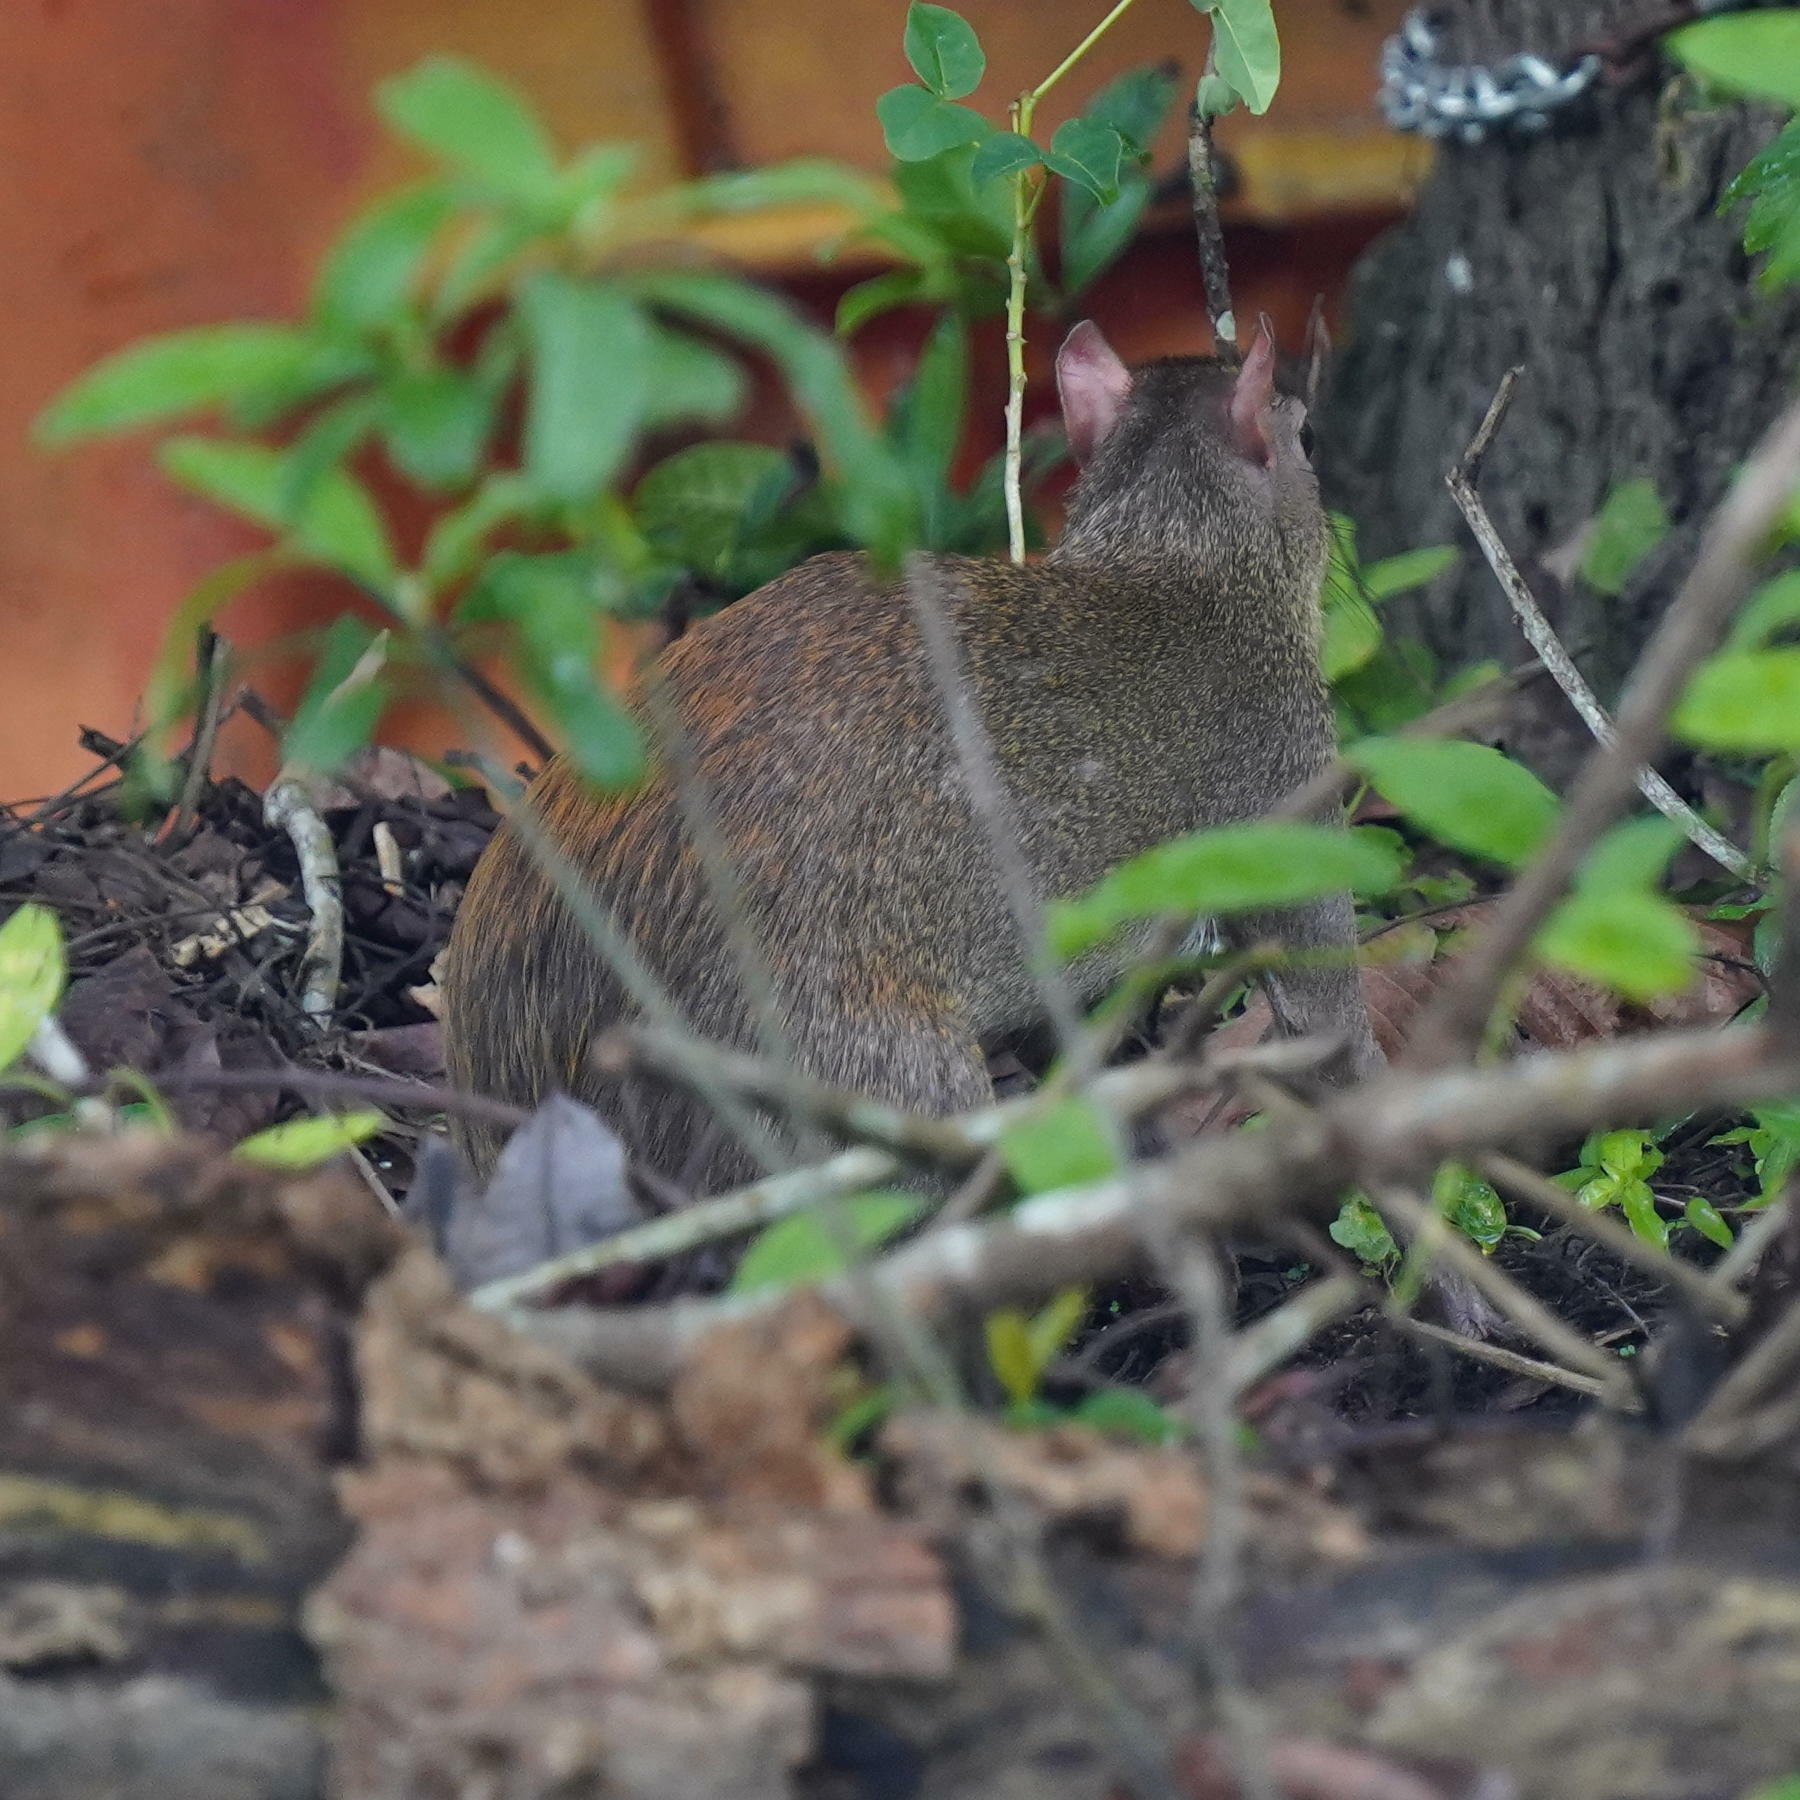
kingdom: Animalia
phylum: Chordata
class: Mammalia
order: Rodentia
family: Dasyproctidae
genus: Dasyprocta
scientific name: Dasyprocta punctata
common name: Central american agouti
